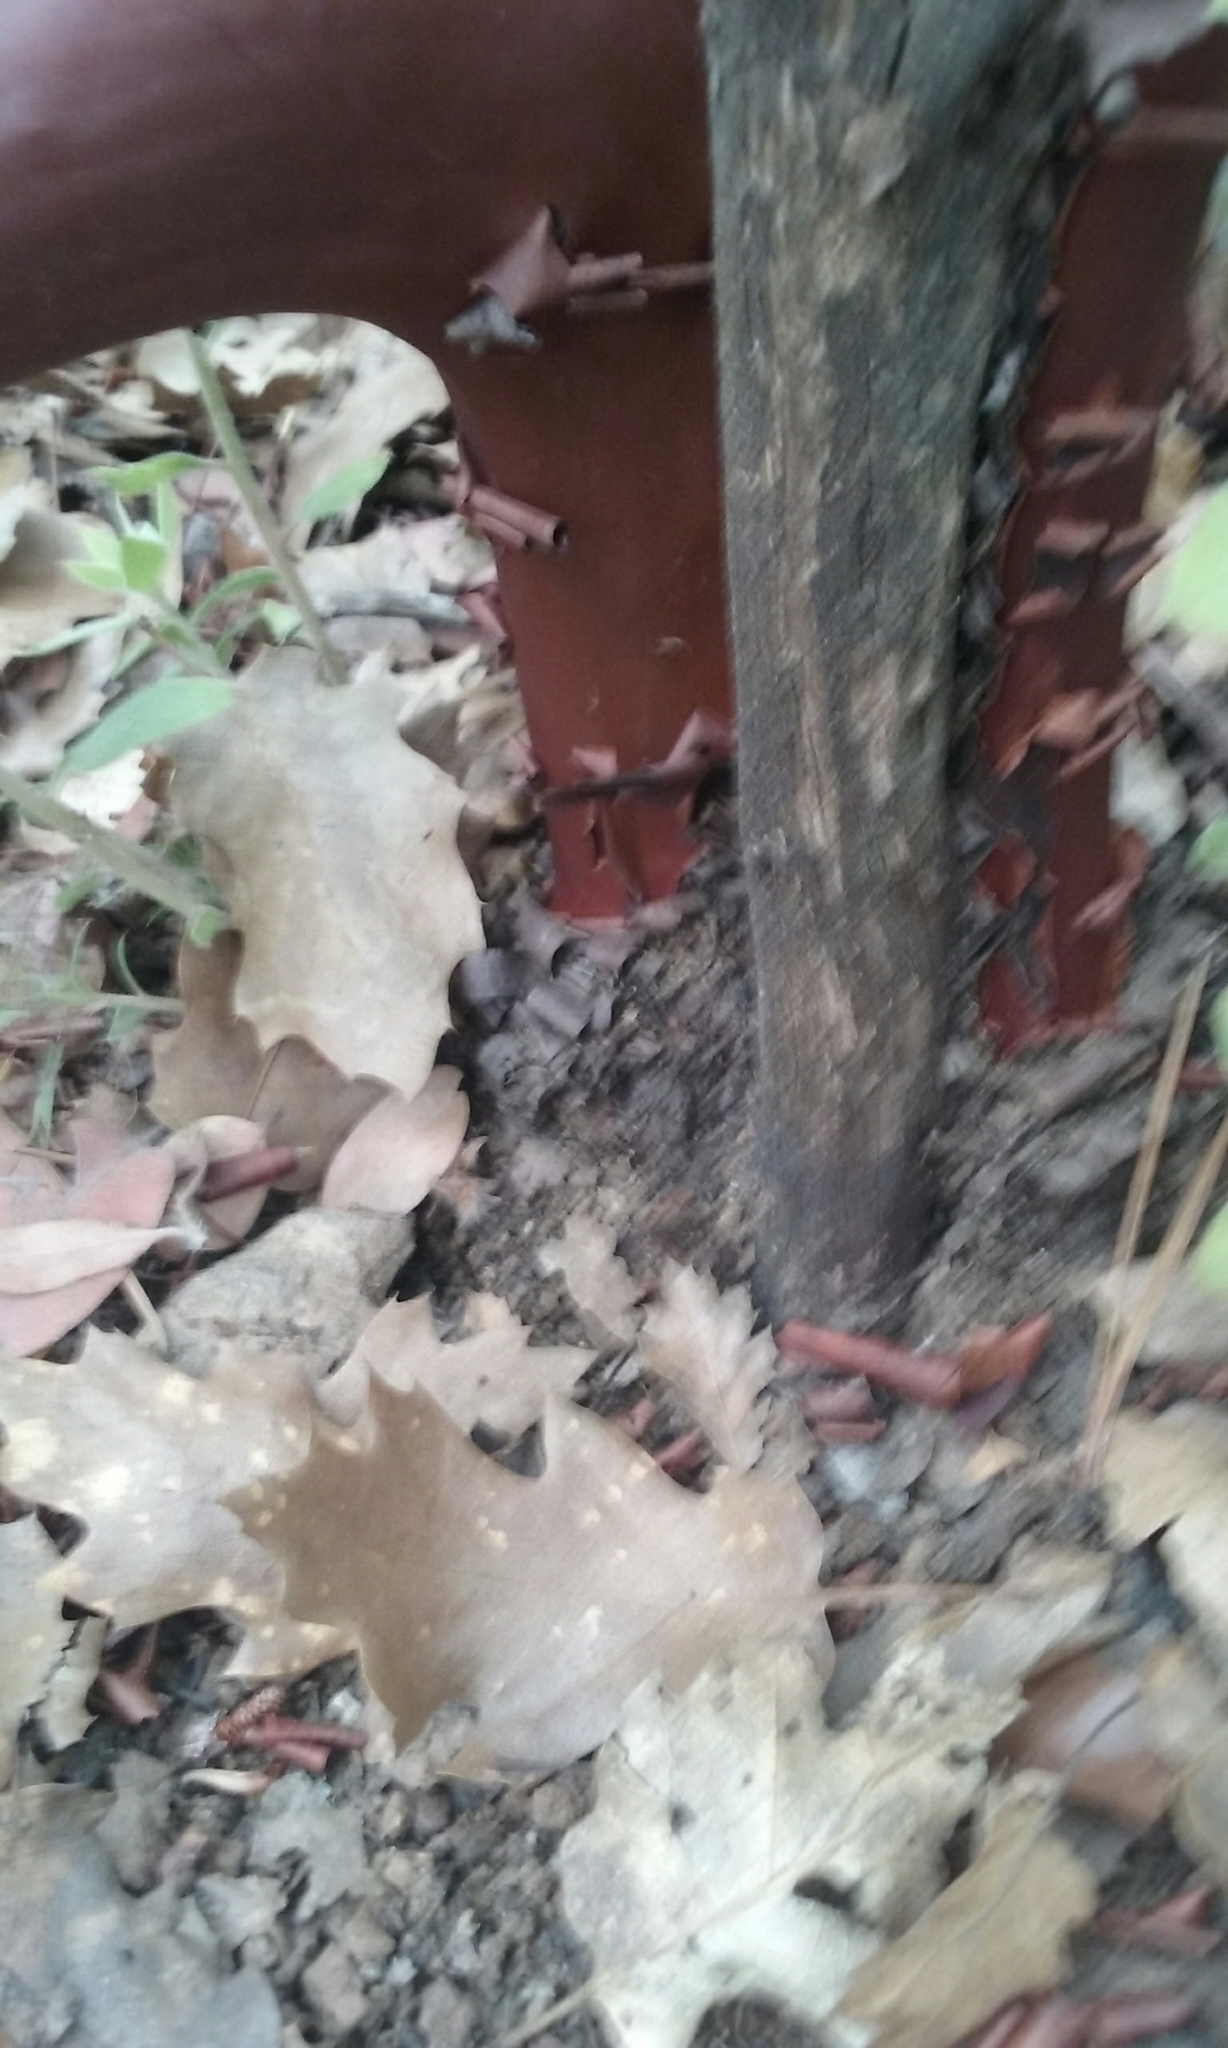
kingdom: Plantae
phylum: Tracheophyta
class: Magnoliopsida
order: Ericales
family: Ericaceae
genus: Arctostaphylos
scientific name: Arctostaphylos glandulosa
